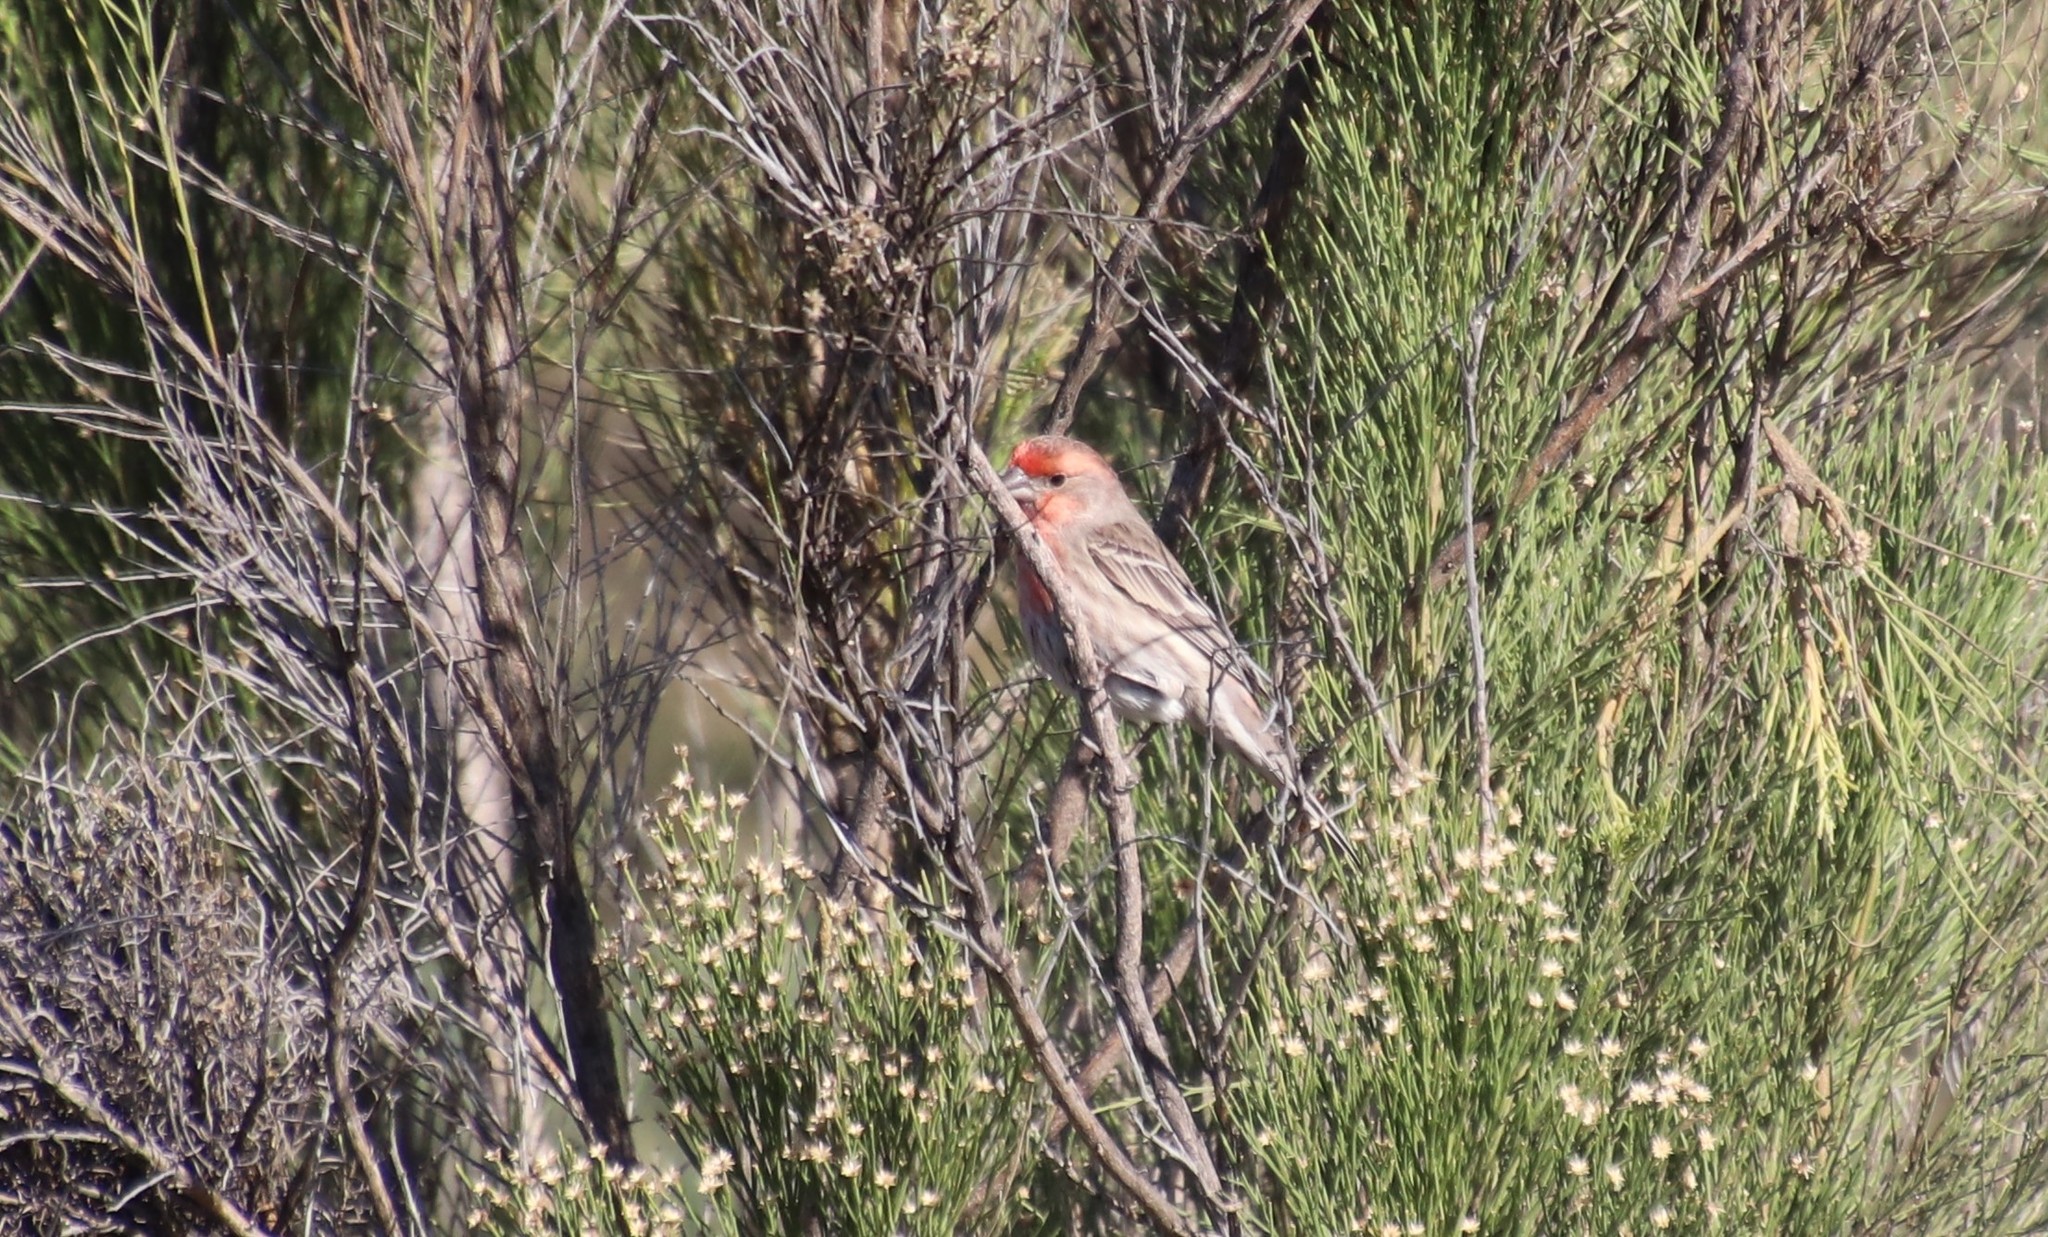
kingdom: Animalia
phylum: Chordata
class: Aves
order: Passeriformes
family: Fringillidae
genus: Haemorhous
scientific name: Haemorhous mexicanus
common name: House finch
